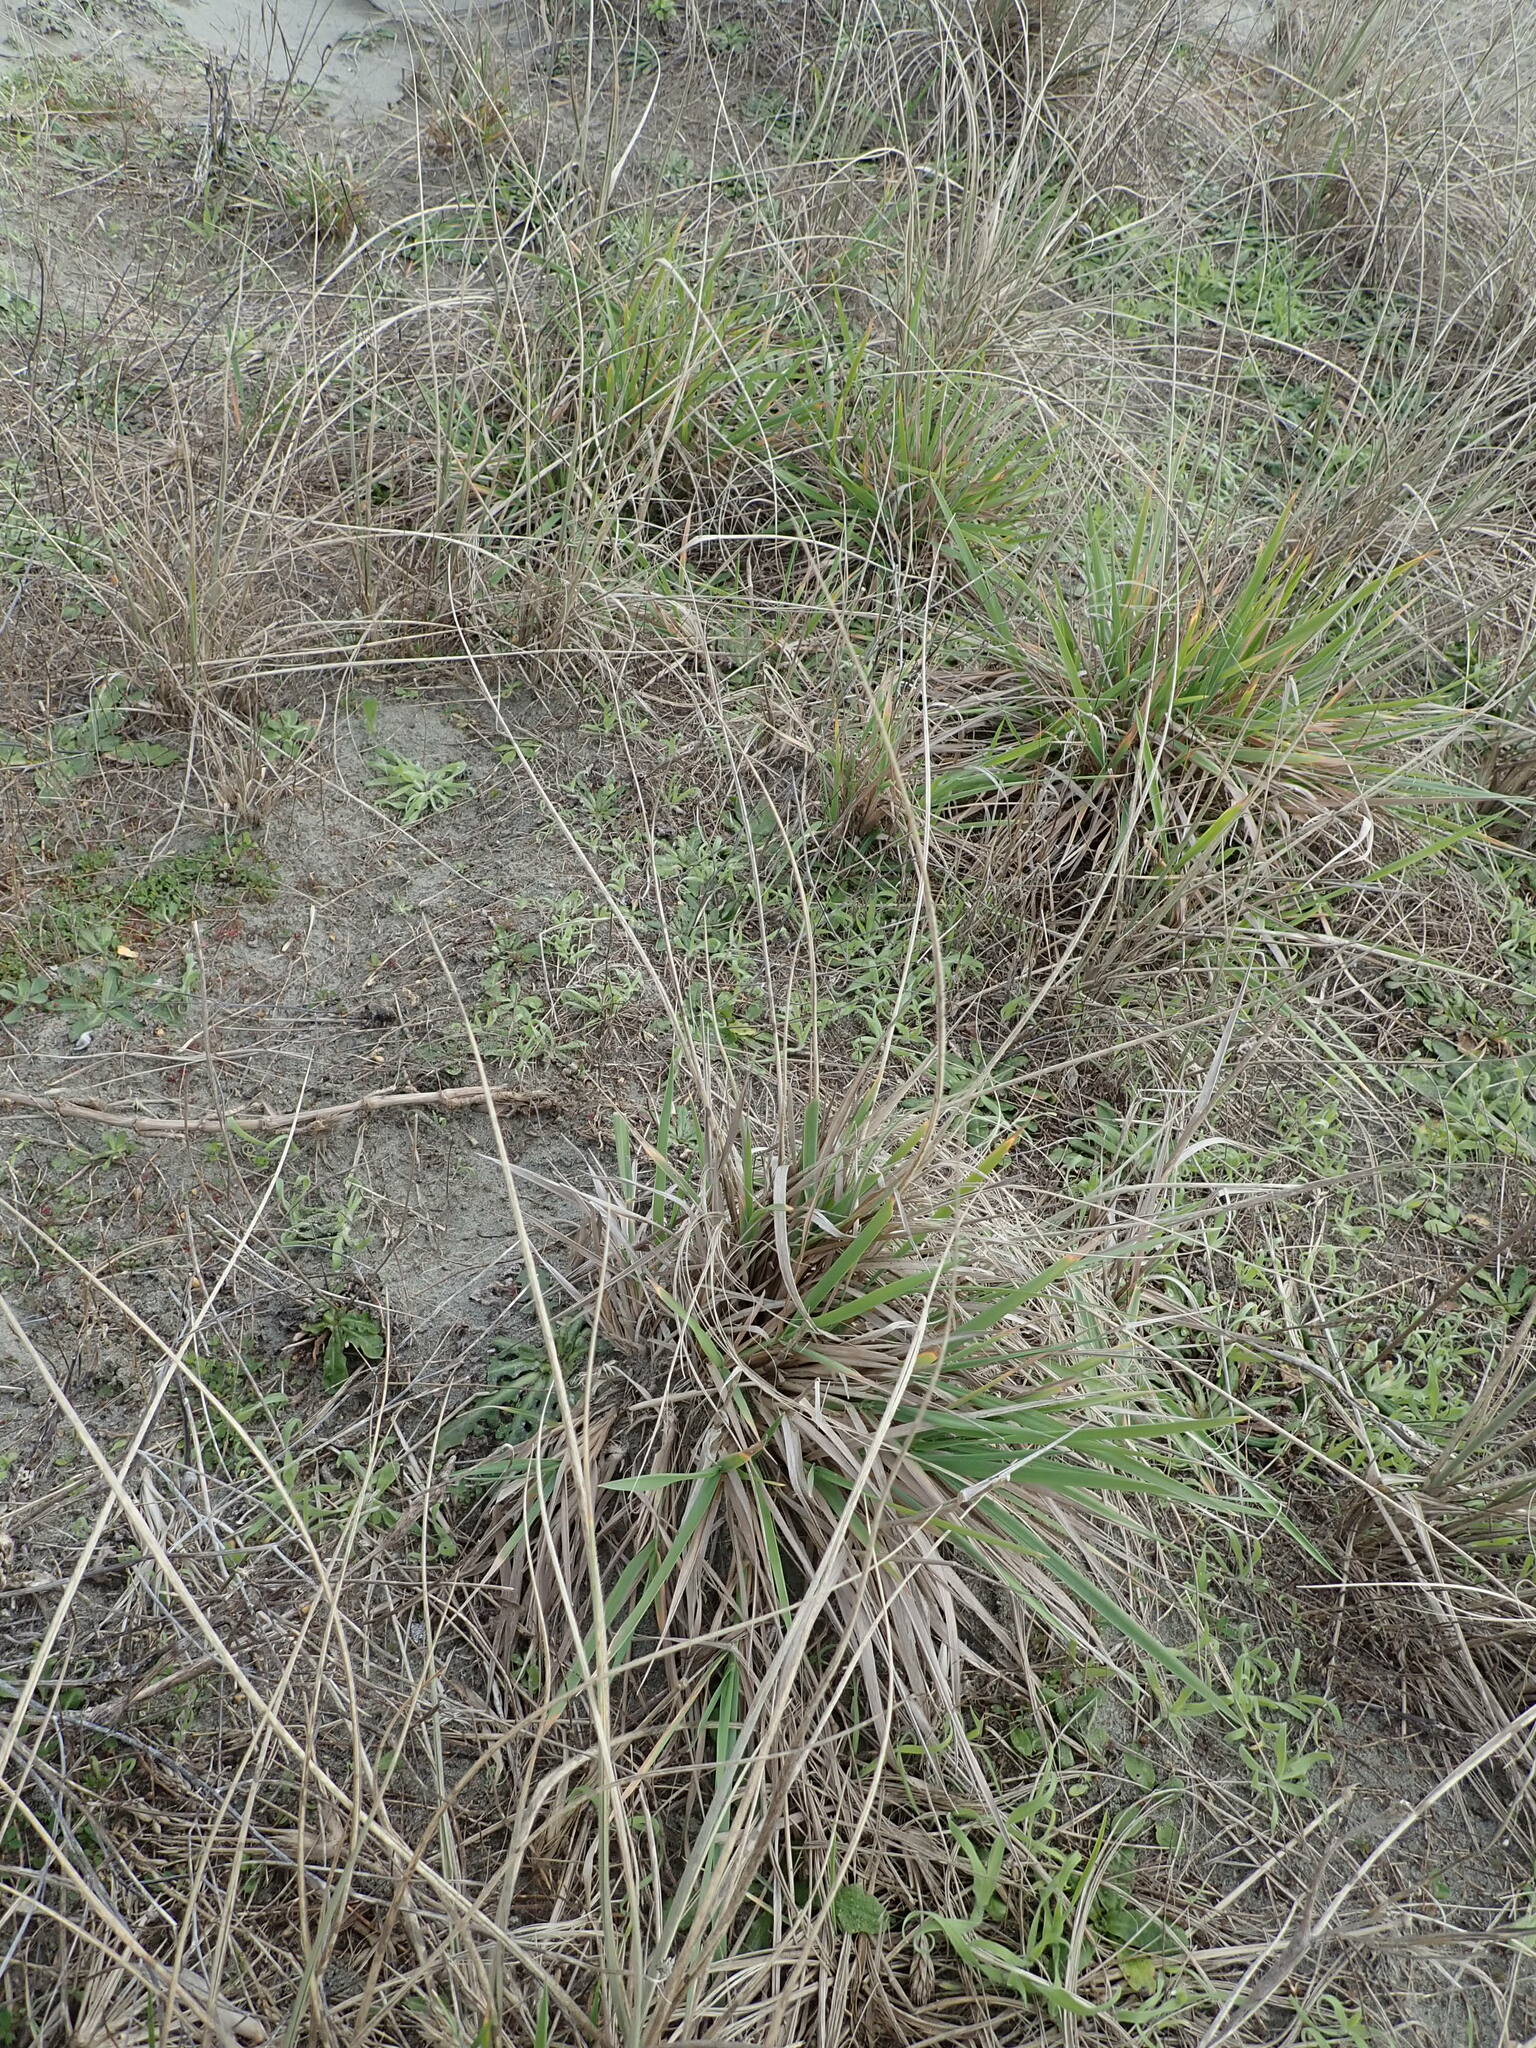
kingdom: Plantae
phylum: Tracheophyta
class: Liliopsida
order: Poales
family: Poaceae
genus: Lachnagrostis
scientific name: Lachnagrostis billardierei
